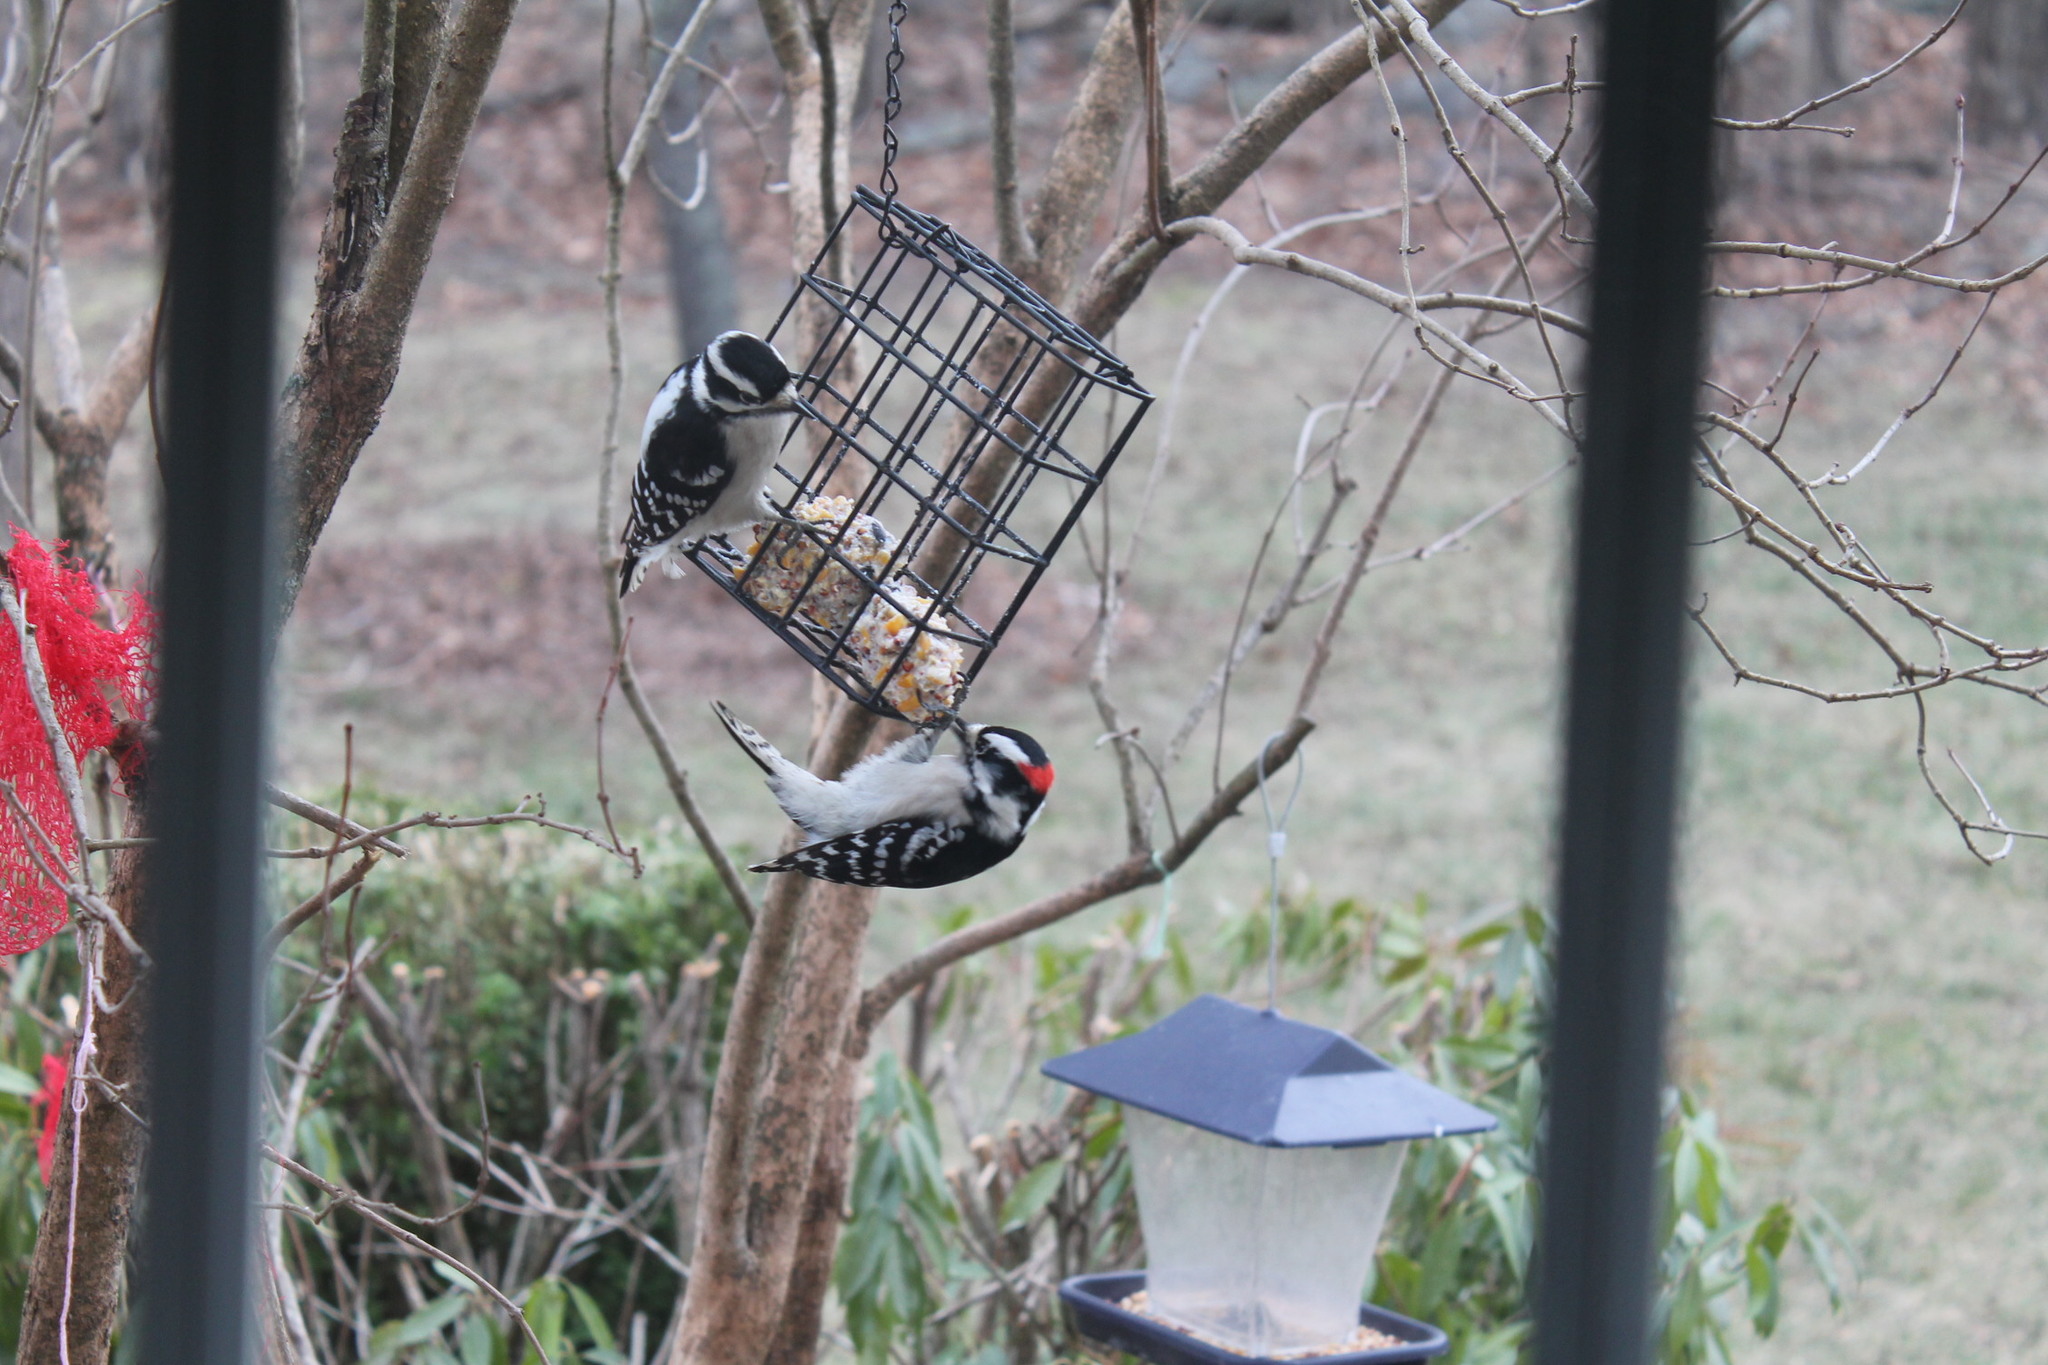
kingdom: Animalia
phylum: Chordata
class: Aves
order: Piciformes
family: Picidae
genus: Dryobates
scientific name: Dryobates pubescens
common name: Downy woodpecker
